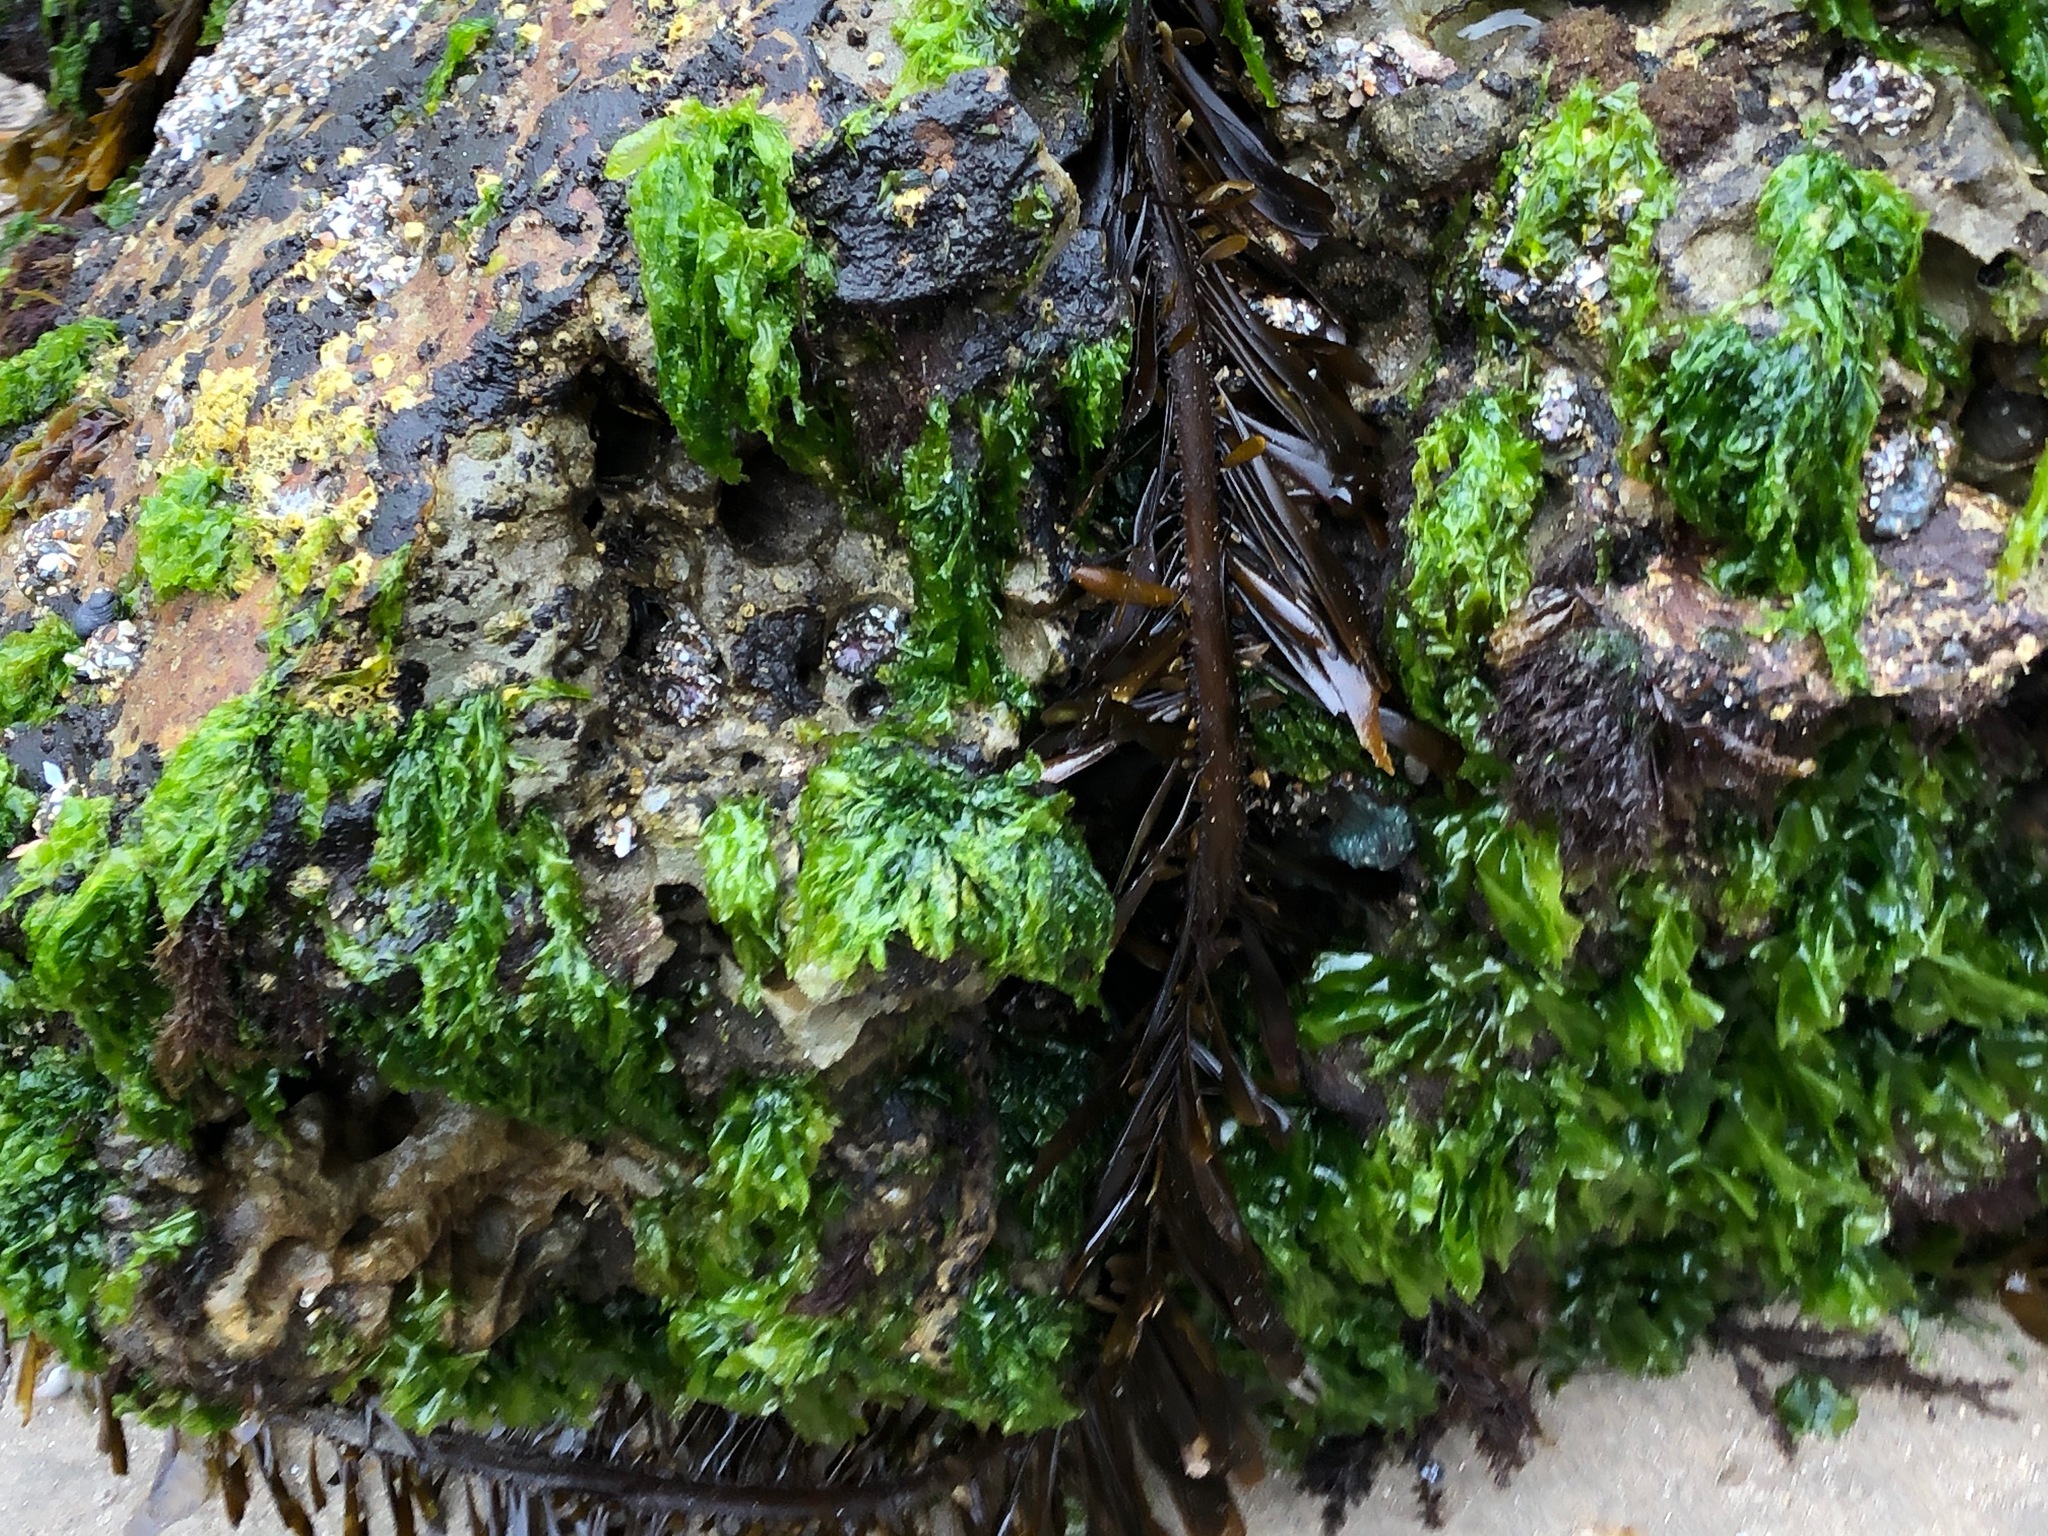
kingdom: Chromista
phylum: Ochrophyta
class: Phaeophyceae
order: Laminariales
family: Lessoniaceae
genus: Egregia
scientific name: Egregia menziesii
